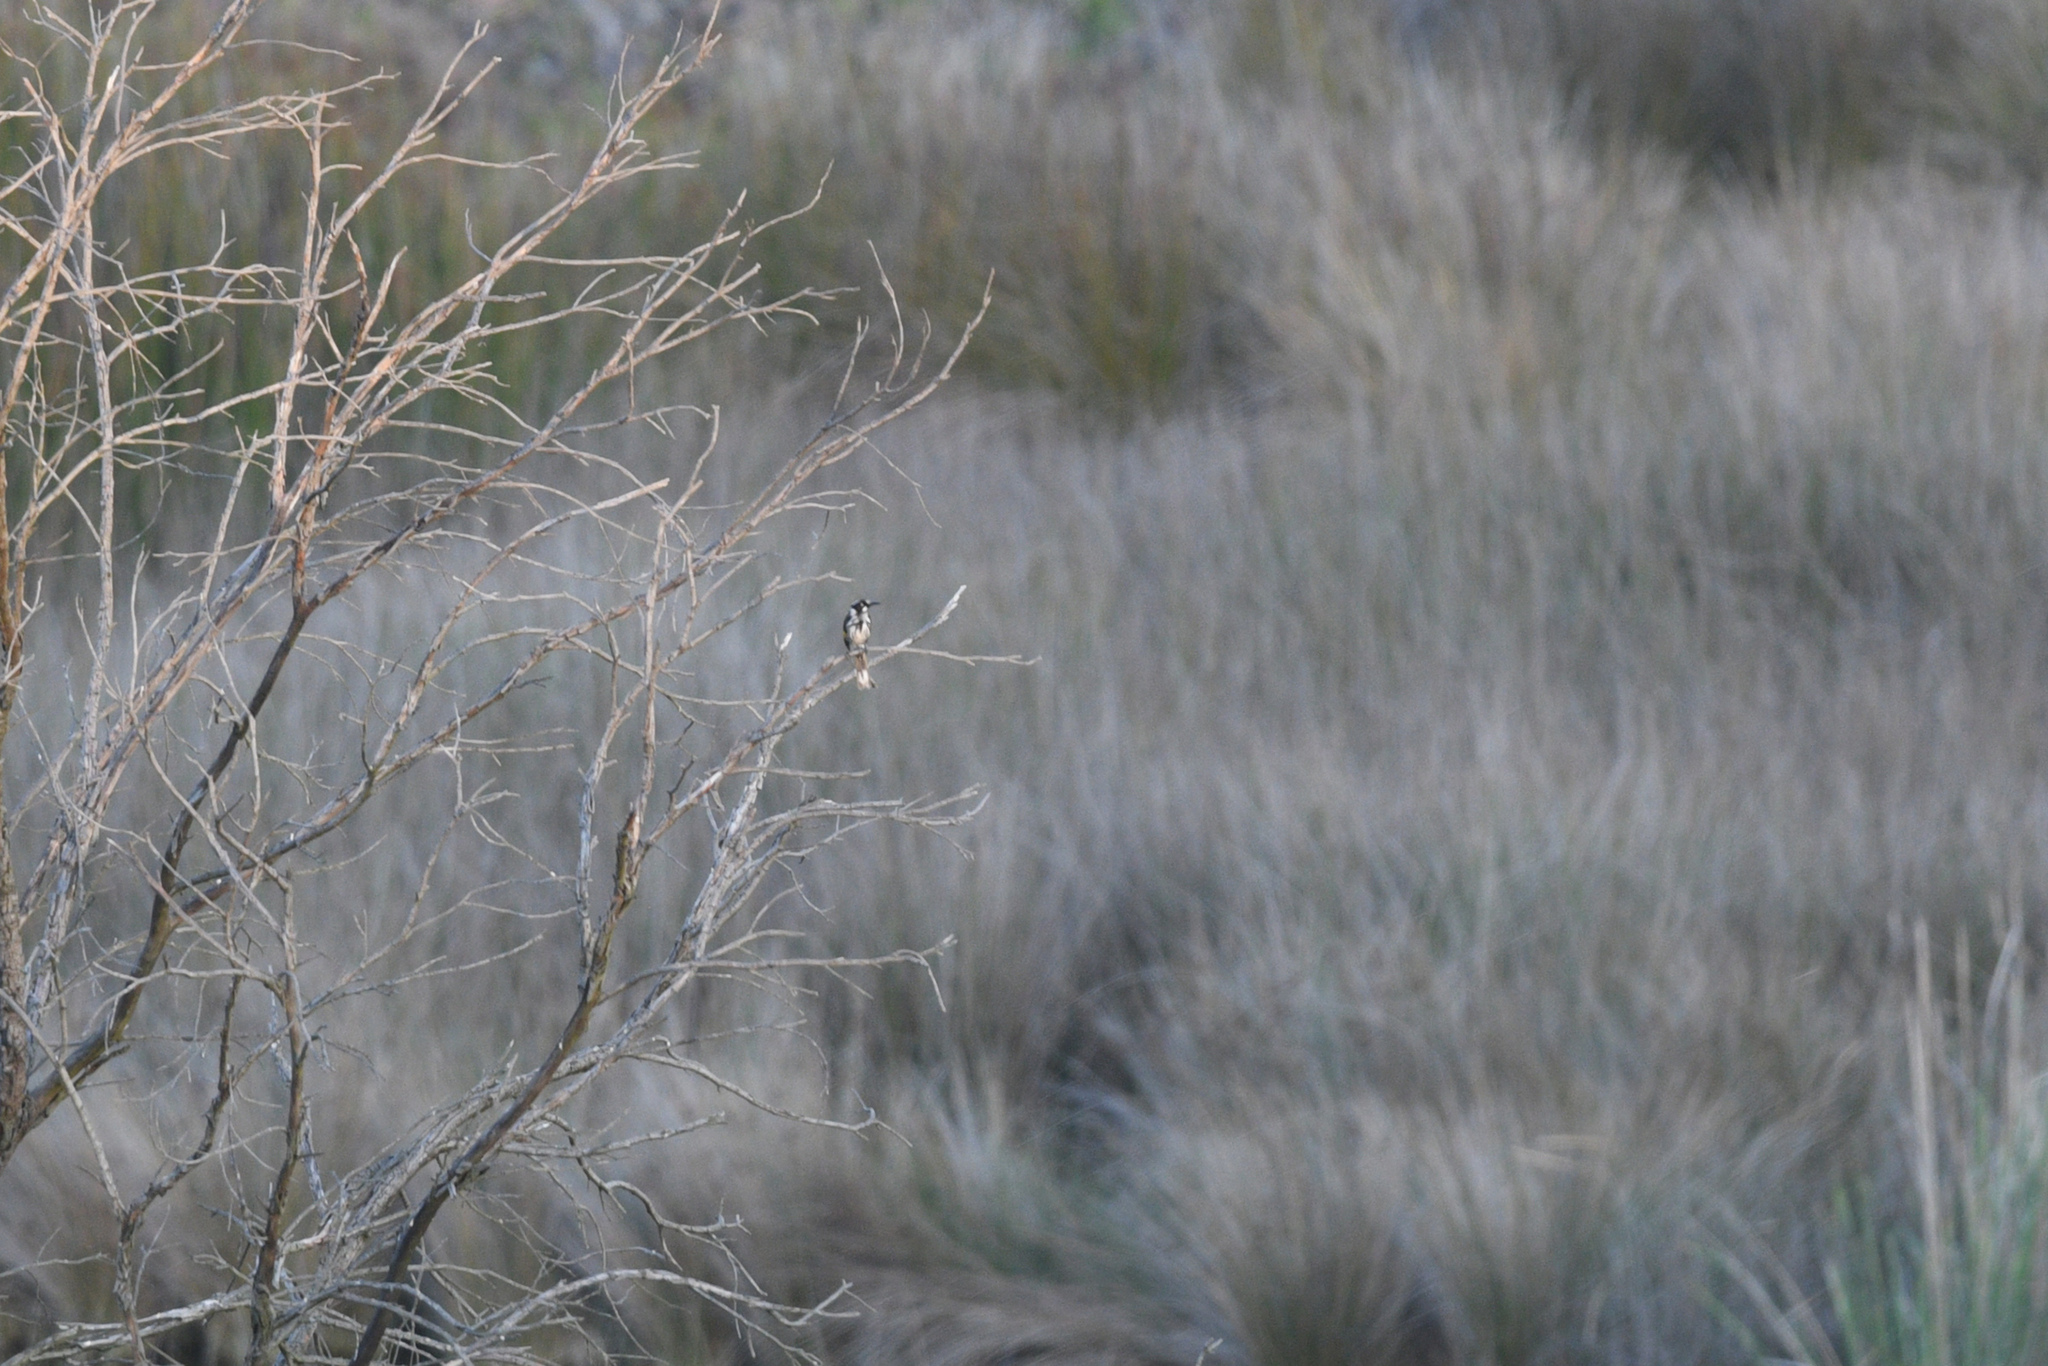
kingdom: Animalia
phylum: Chordata
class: Aves
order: Passeriformes
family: Meliphagidae
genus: Phylidonyris
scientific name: Phylidonyris novaehollandiae
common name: New holland honeyeater
